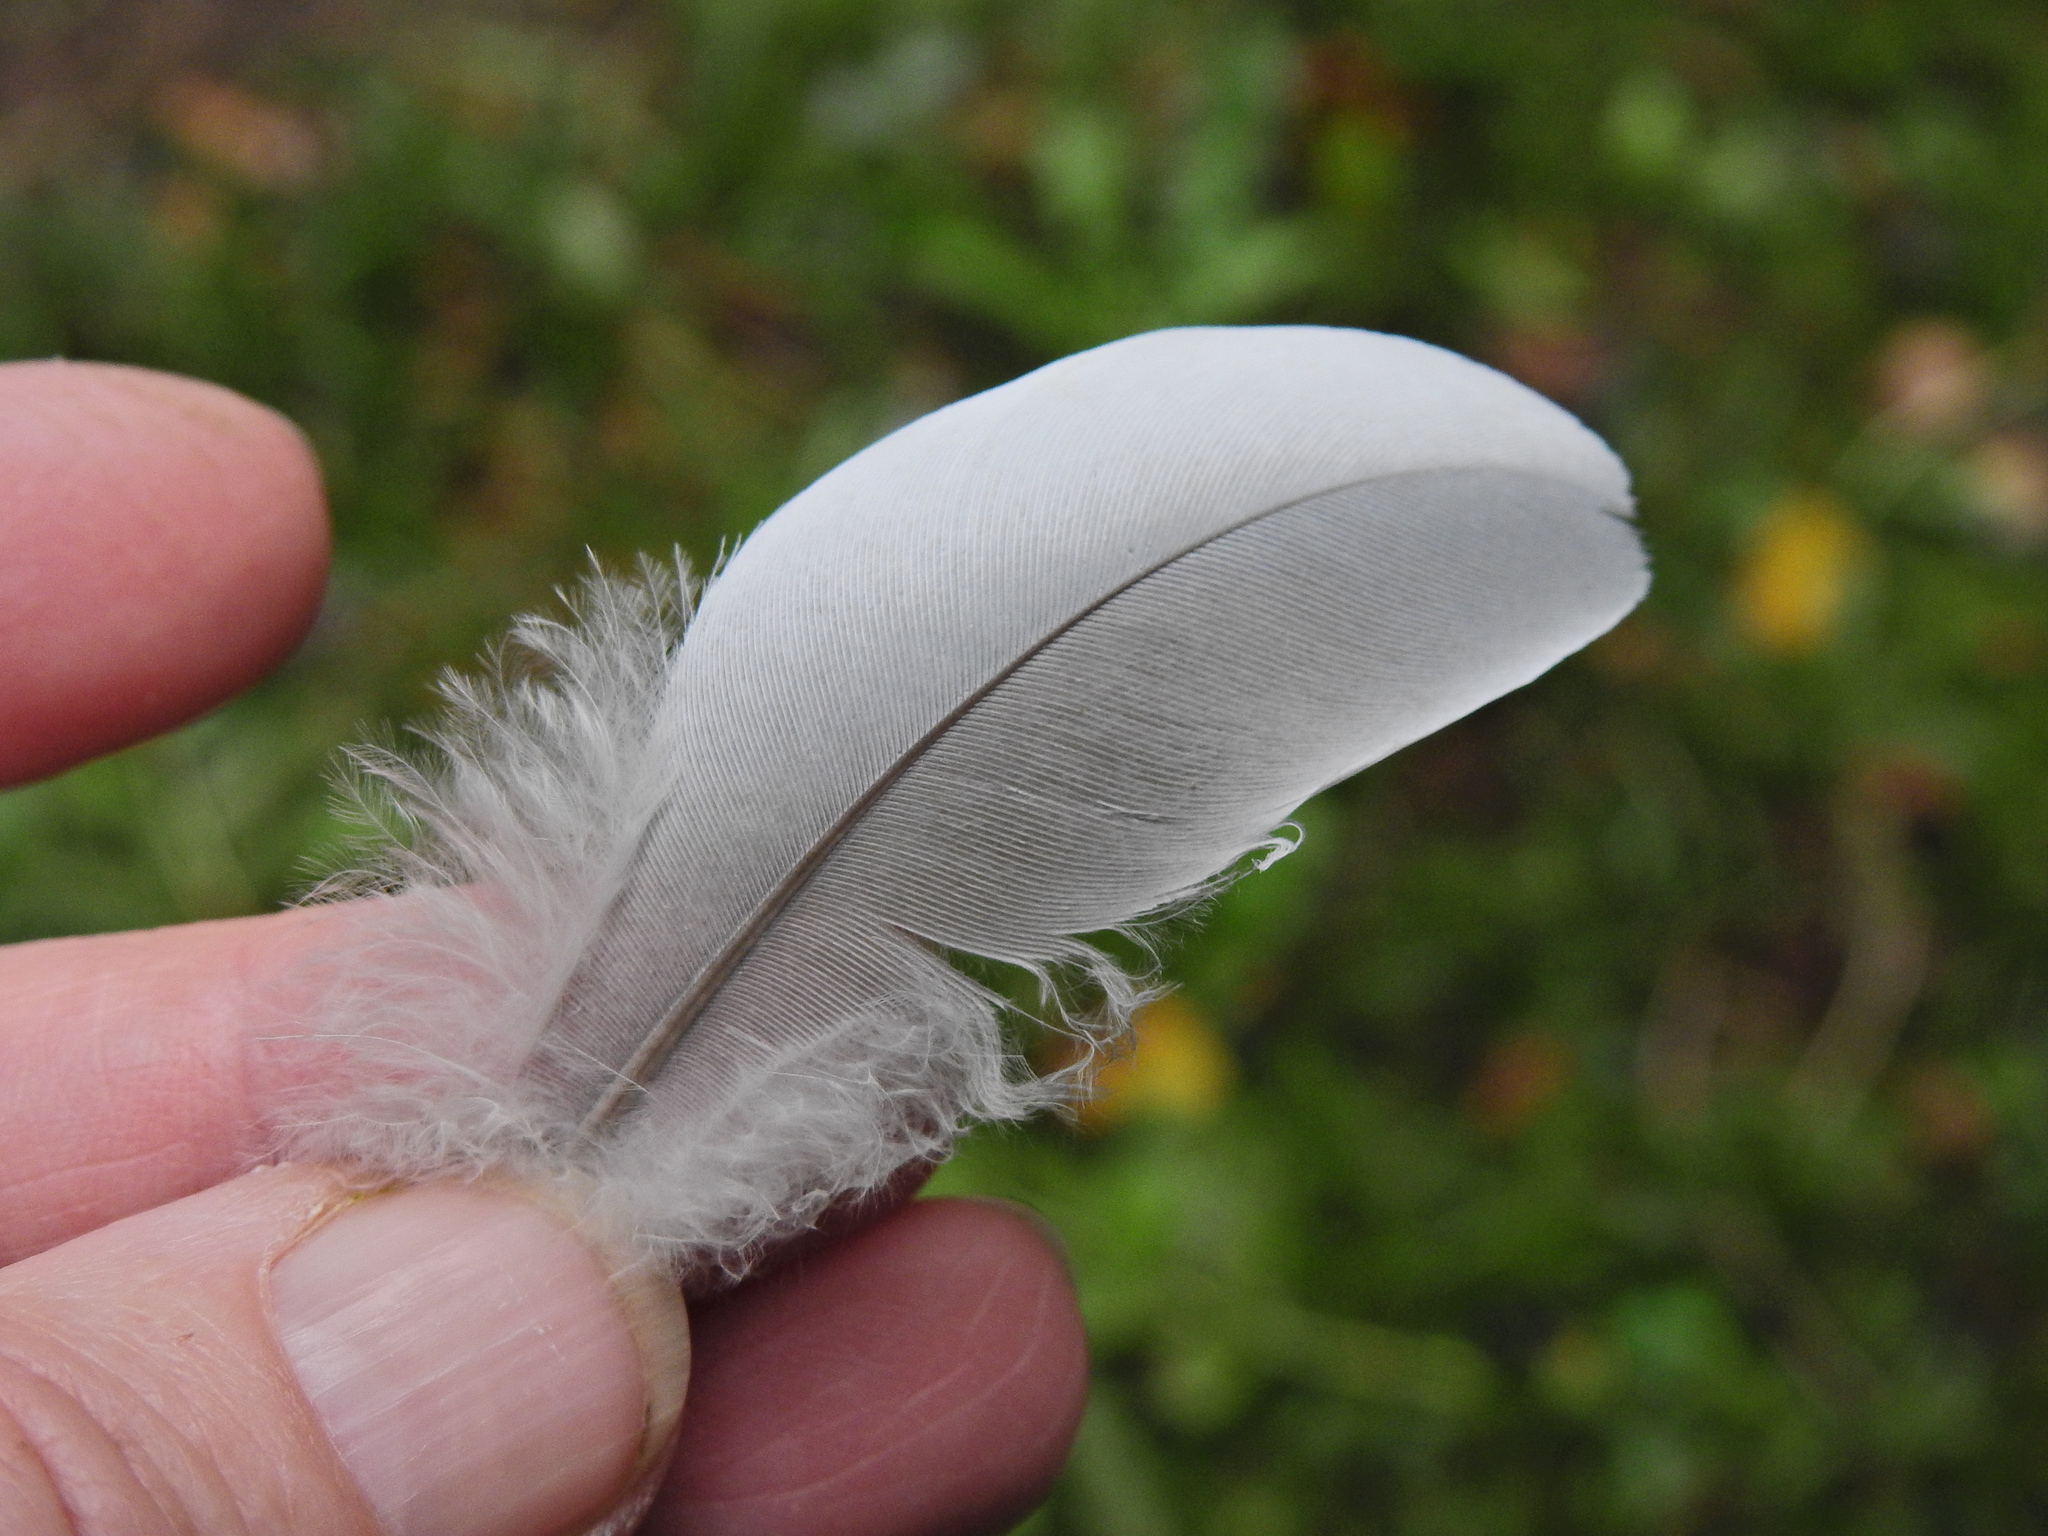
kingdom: Animalia
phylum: Chordata
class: Aves
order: Columbiformes
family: Columbidae
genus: Columba
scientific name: Columba palumbus
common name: Common wood pigeon
